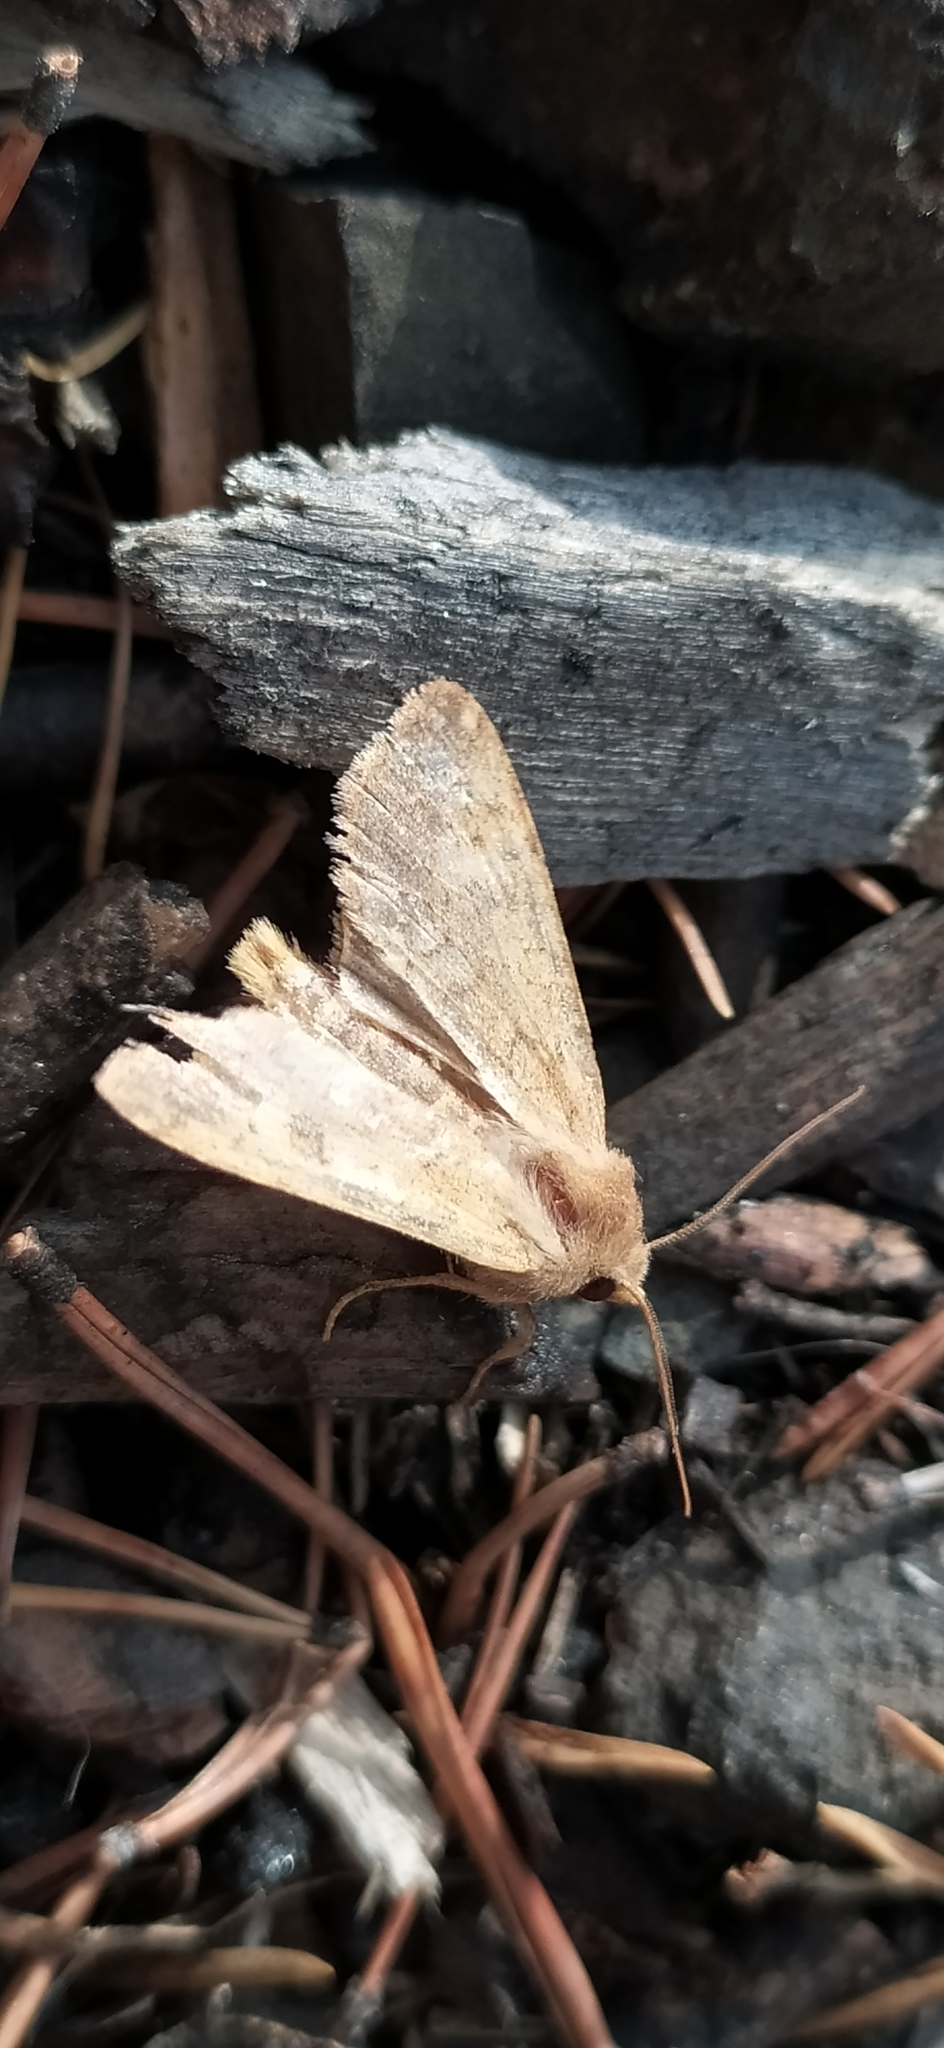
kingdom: Animalia
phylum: Arthropoda
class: Insecta
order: Lepidoptera
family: Noctuidae
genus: Sunira
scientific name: Sunira circellaris
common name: Brick
